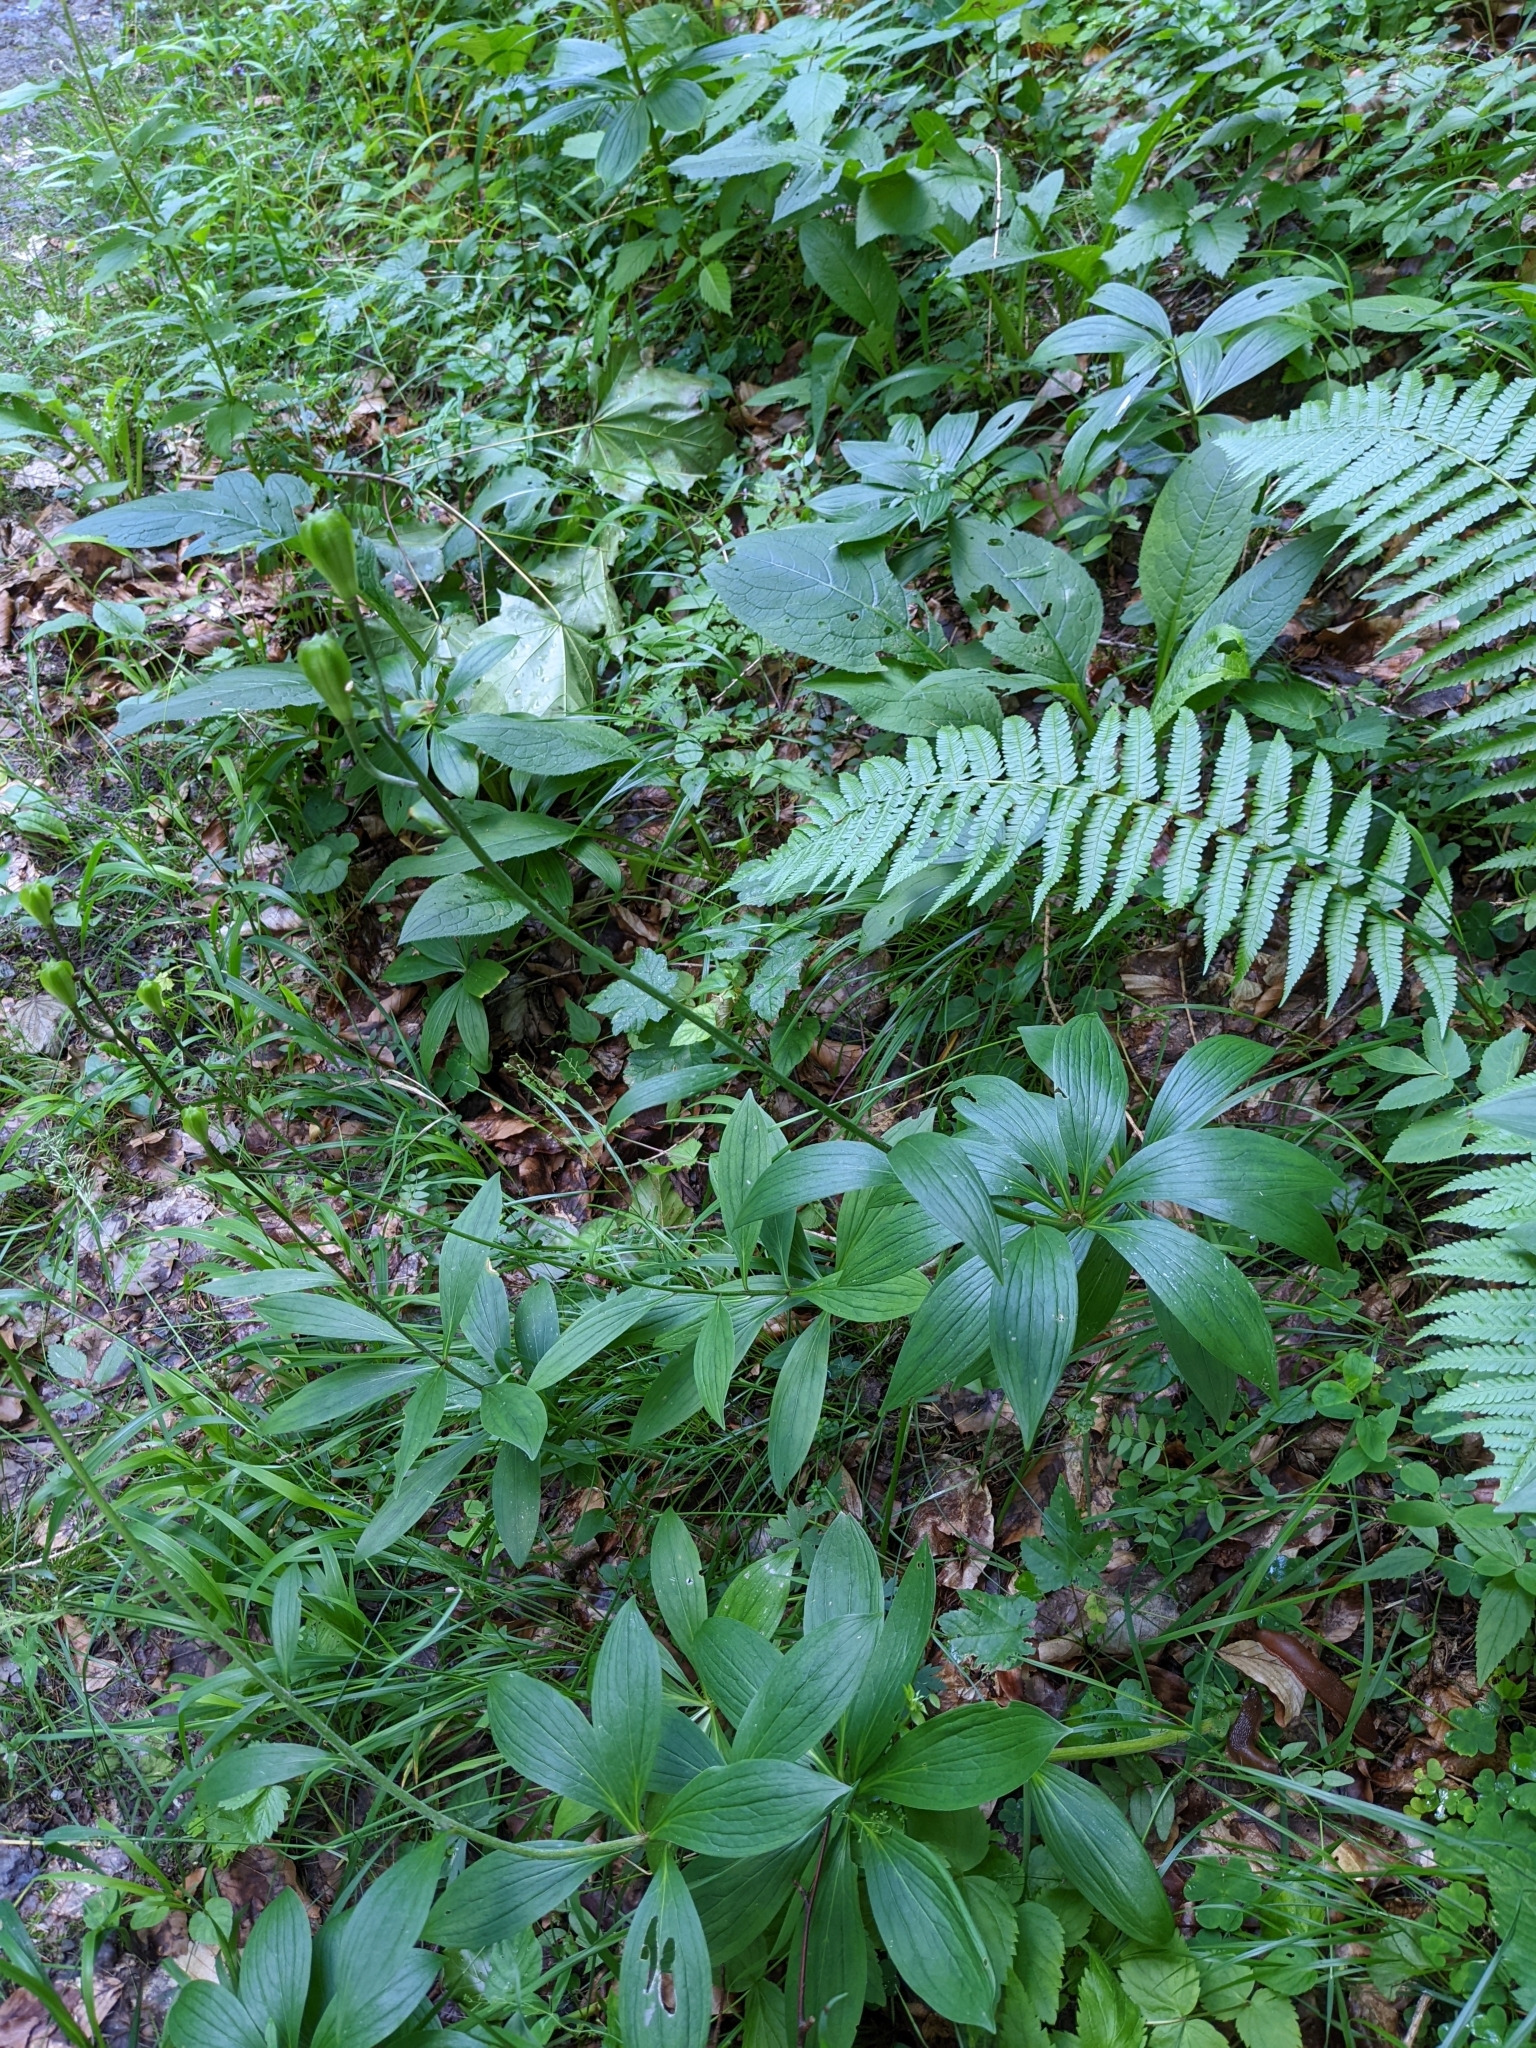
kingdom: Plantae
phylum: Tracheophyta
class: Liliopsida
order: Liliales
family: Liliaceae
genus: Lilium
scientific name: Lilium martagon
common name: Martagon lily
